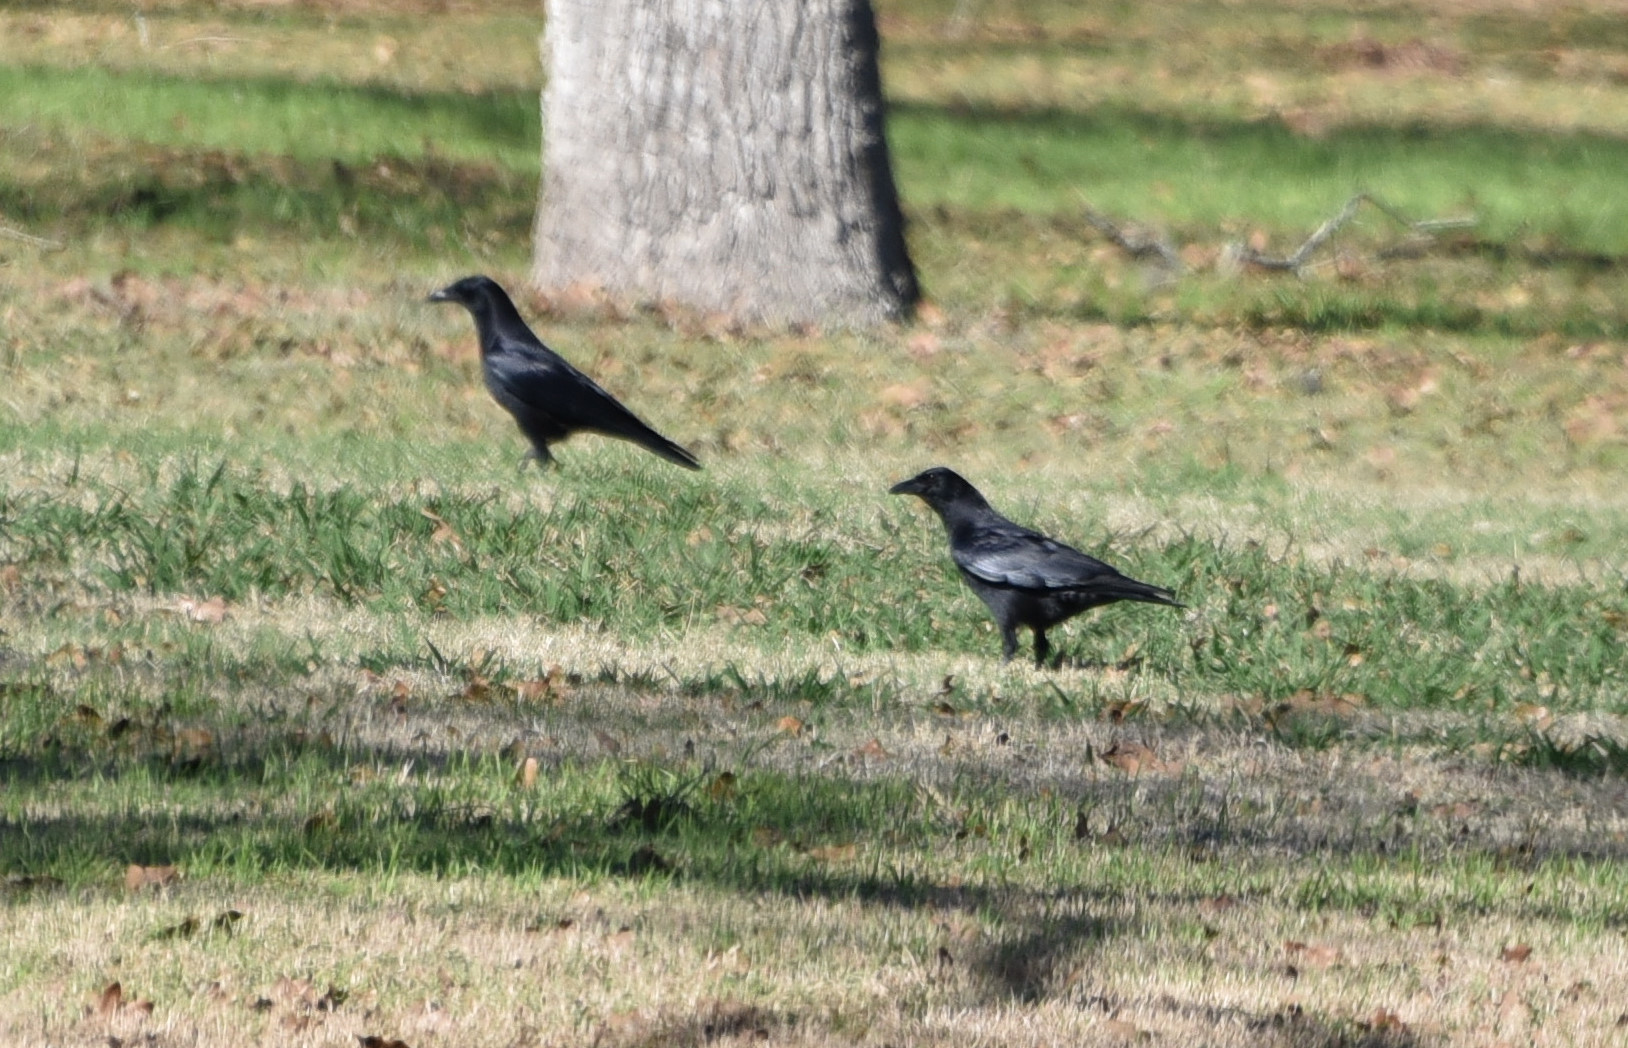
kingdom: Animalia
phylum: Chordata
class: Aves
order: Passeriformes
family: Corvidae
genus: Corvus
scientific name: Corvus brachyrhynchos
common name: American crow
